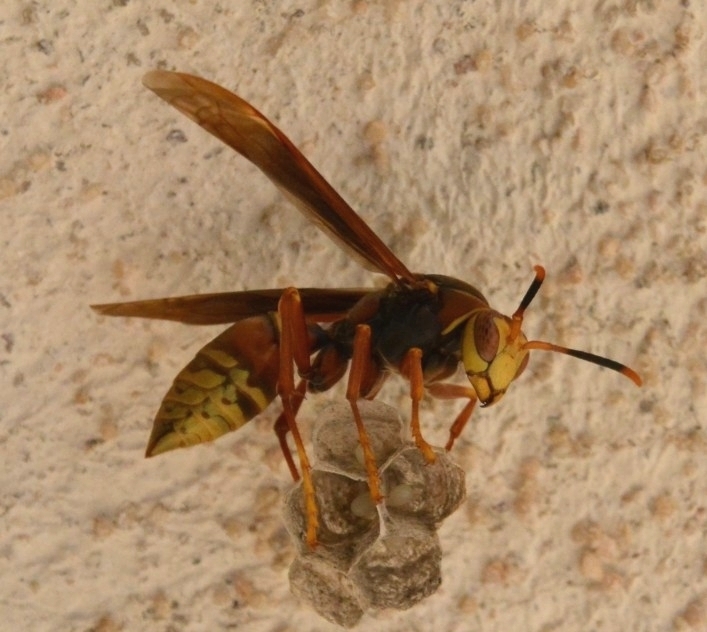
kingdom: Animalia
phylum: Arthropoda
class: Insecta
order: Hymenoptera
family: Eumenidae
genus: Polistes
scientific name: Polistes cavapyta
